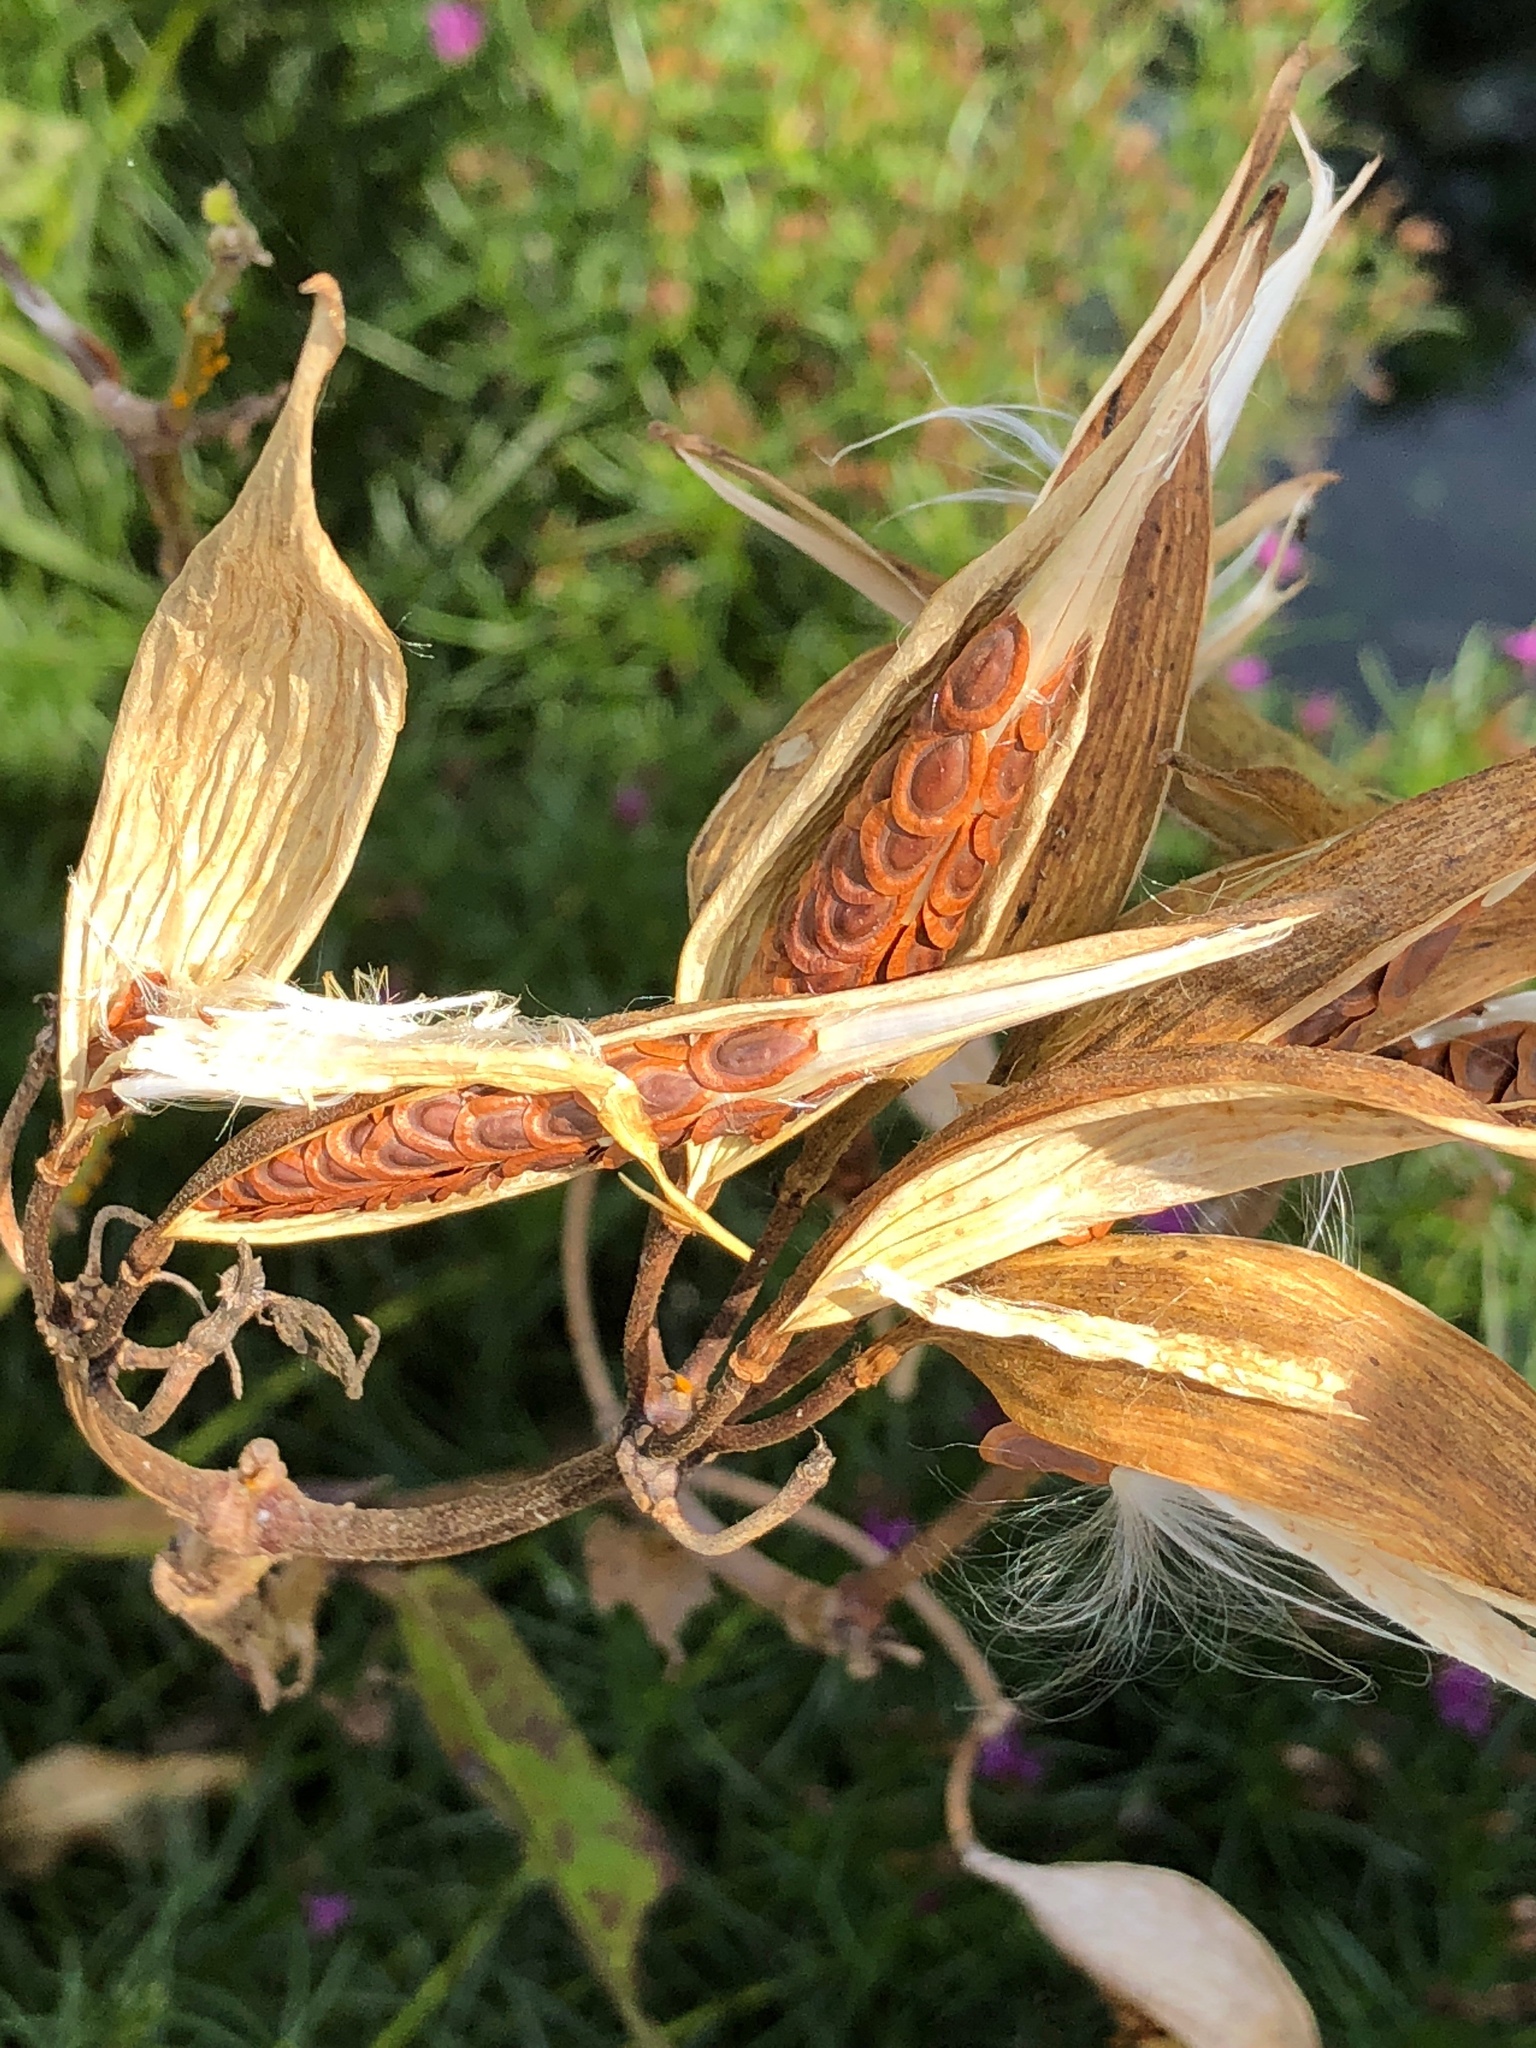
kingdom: Plantae
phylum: Tracheophyta
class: Magnoliopsida
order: Gentianales
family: Apocynaceae
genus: Asclepias
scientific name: Asclepias incarnata
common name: Swamp milkweed
